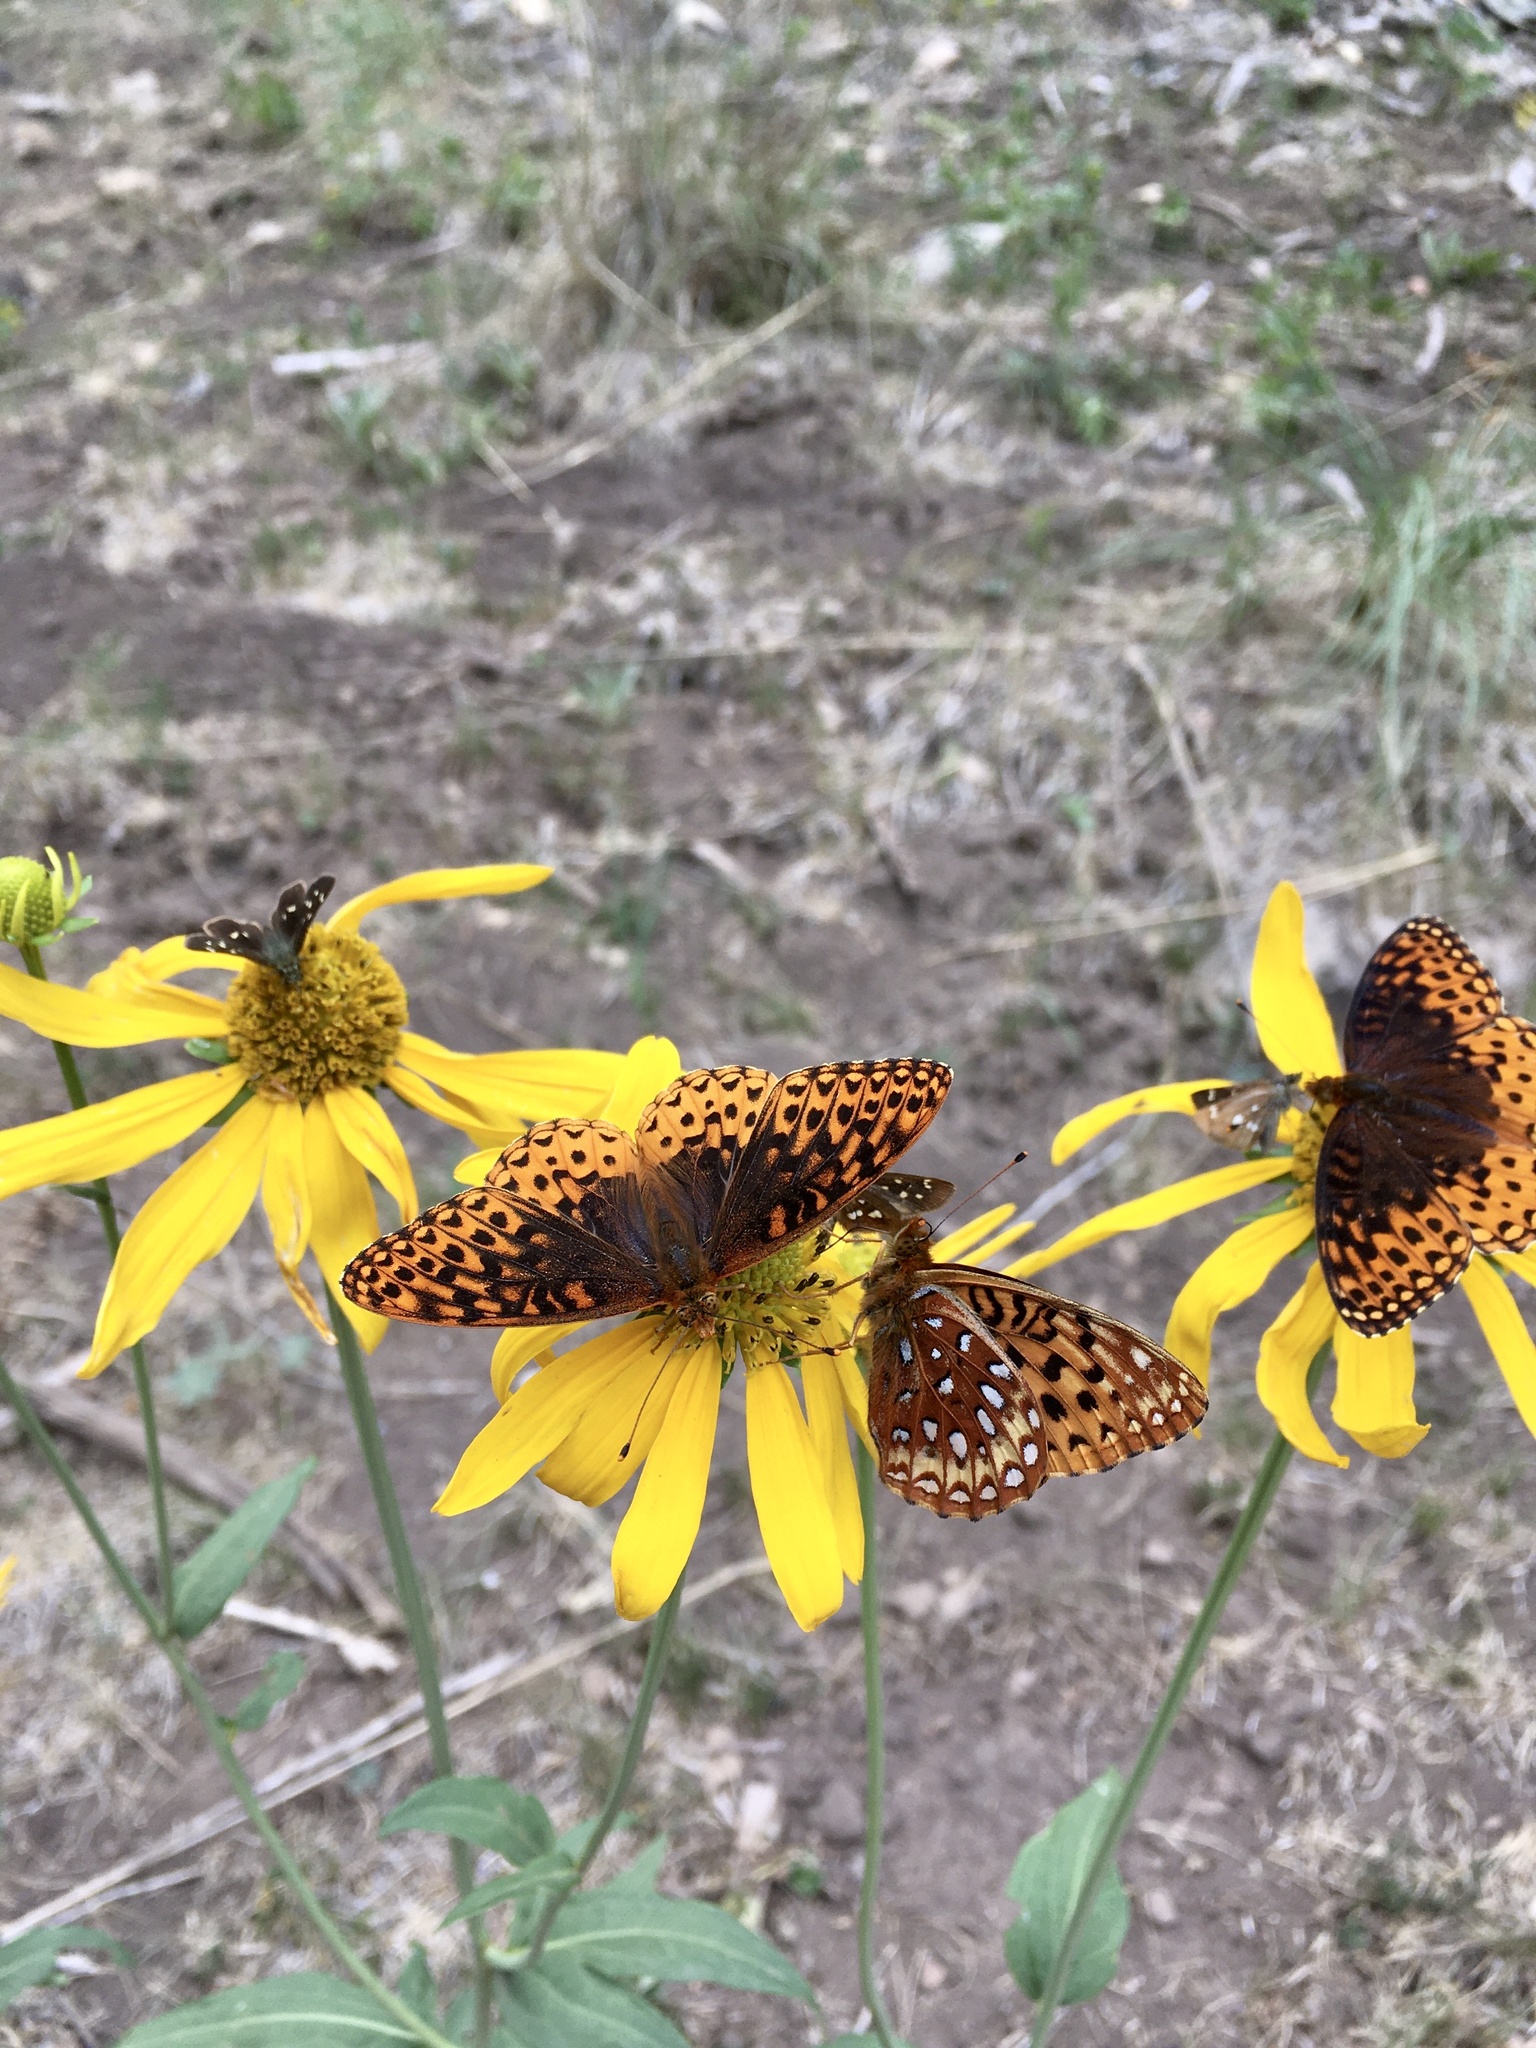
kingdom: Animalia
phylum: Arthropoda
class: Insecta
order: Lepidoptera
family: Nymphalidae
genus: Speyeria
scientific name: Speyeria atlantis
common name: Atlantis fritillary
